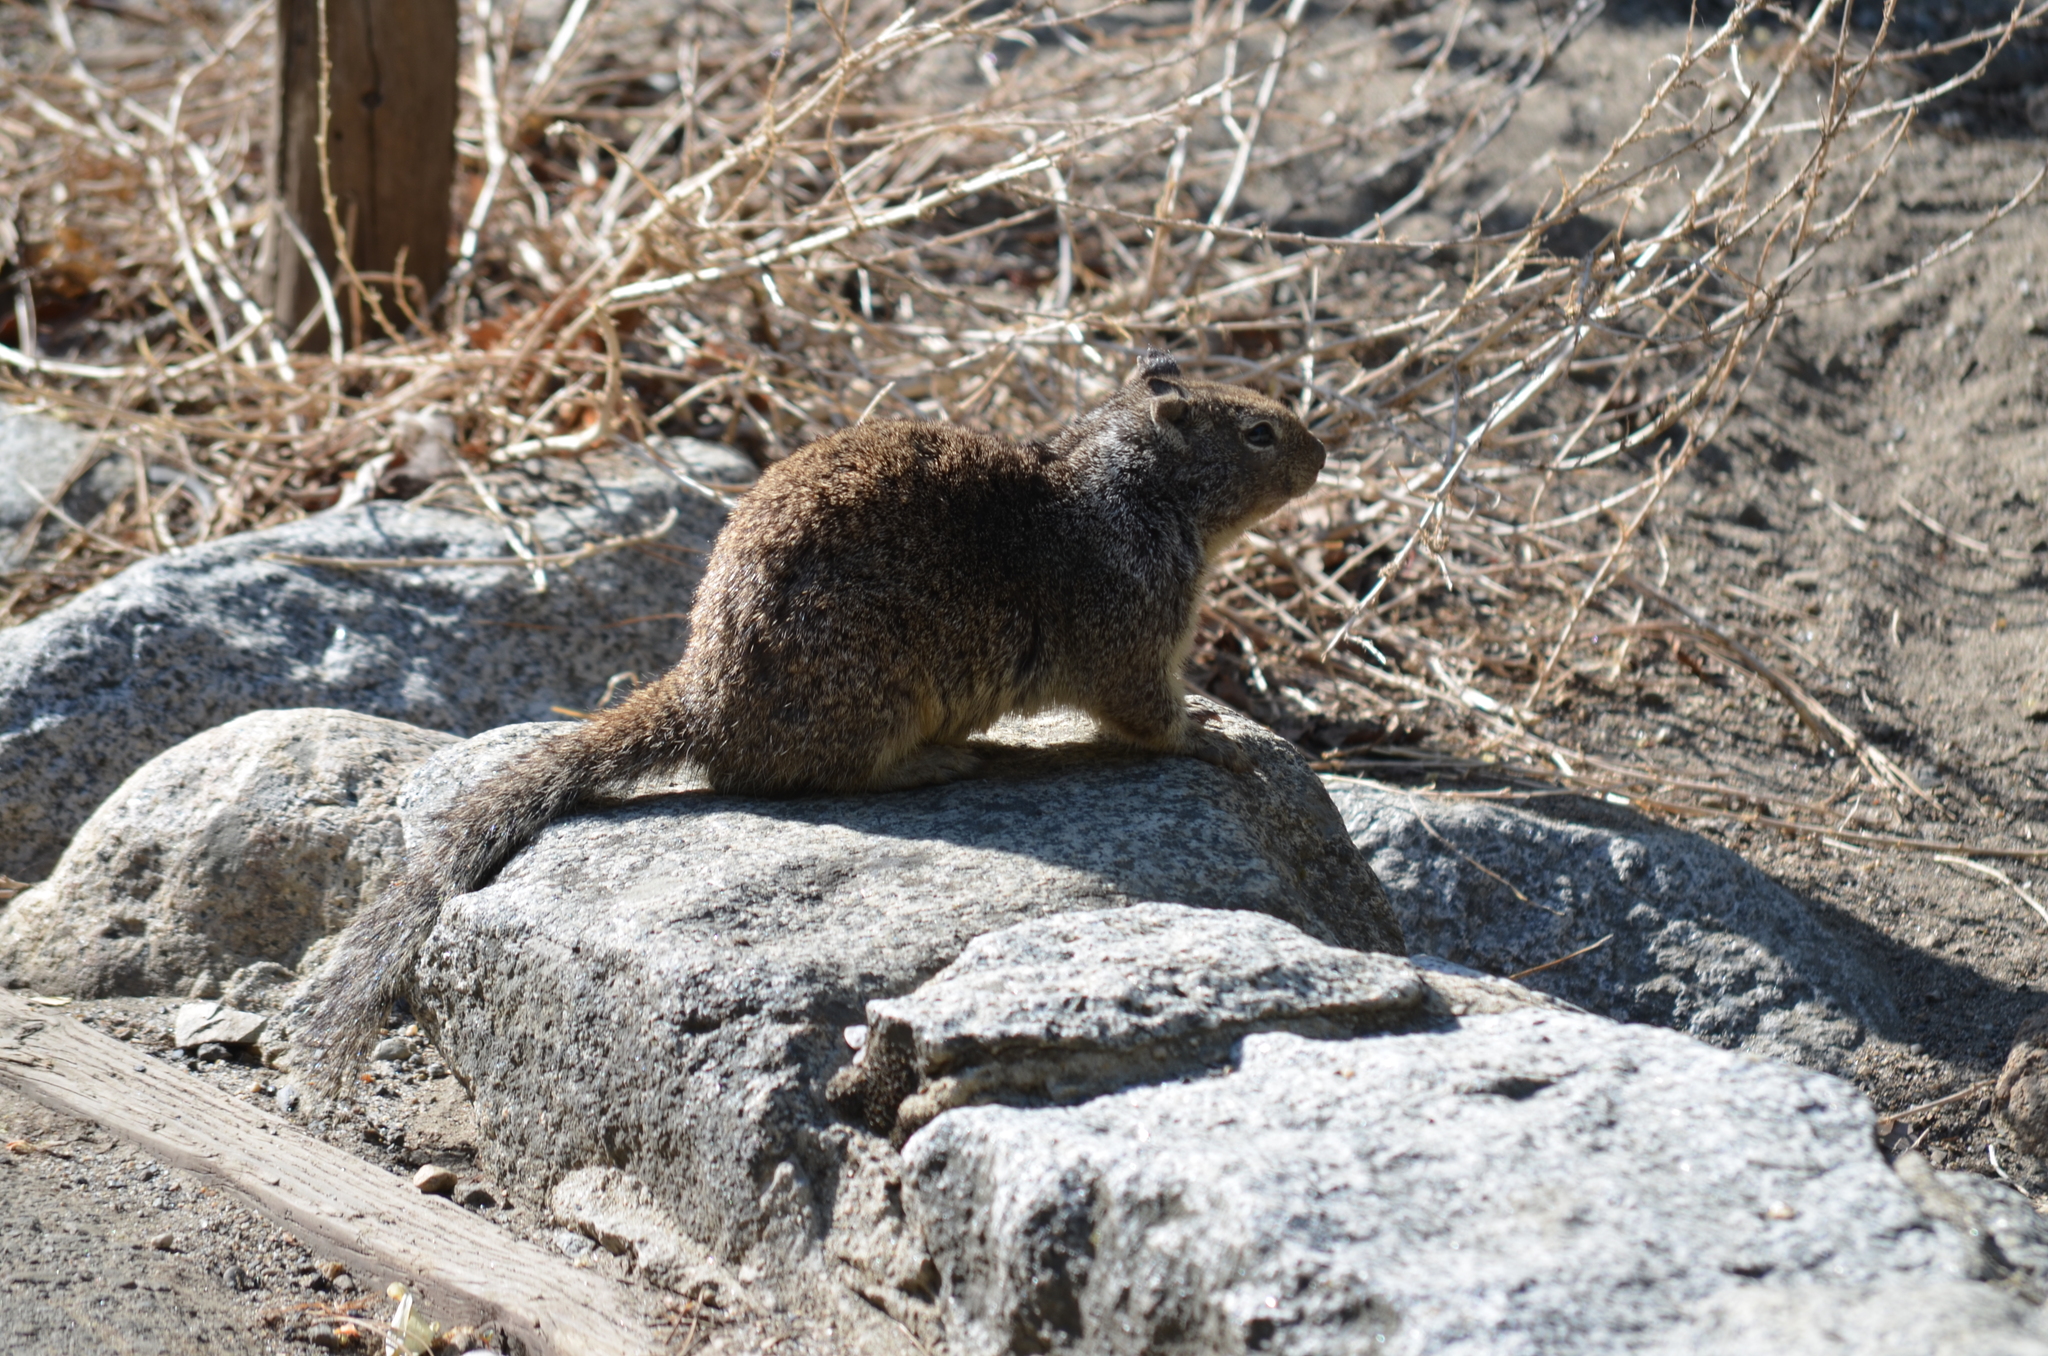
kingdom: Animalia
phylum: Chordata
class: Mammalia
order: Rodentia
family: Sciuridae
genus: Otospermophilus
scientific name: Otospermophilus beecheyi
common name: California ground squirrel
